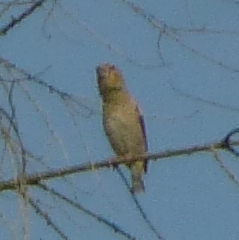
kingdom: Animalia
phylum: Chordata
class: Aves
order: Passeriformes
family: Fringillidae
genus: Coccothraustes
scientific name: Coccothraustes coccothraustes
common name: Hawfinch
